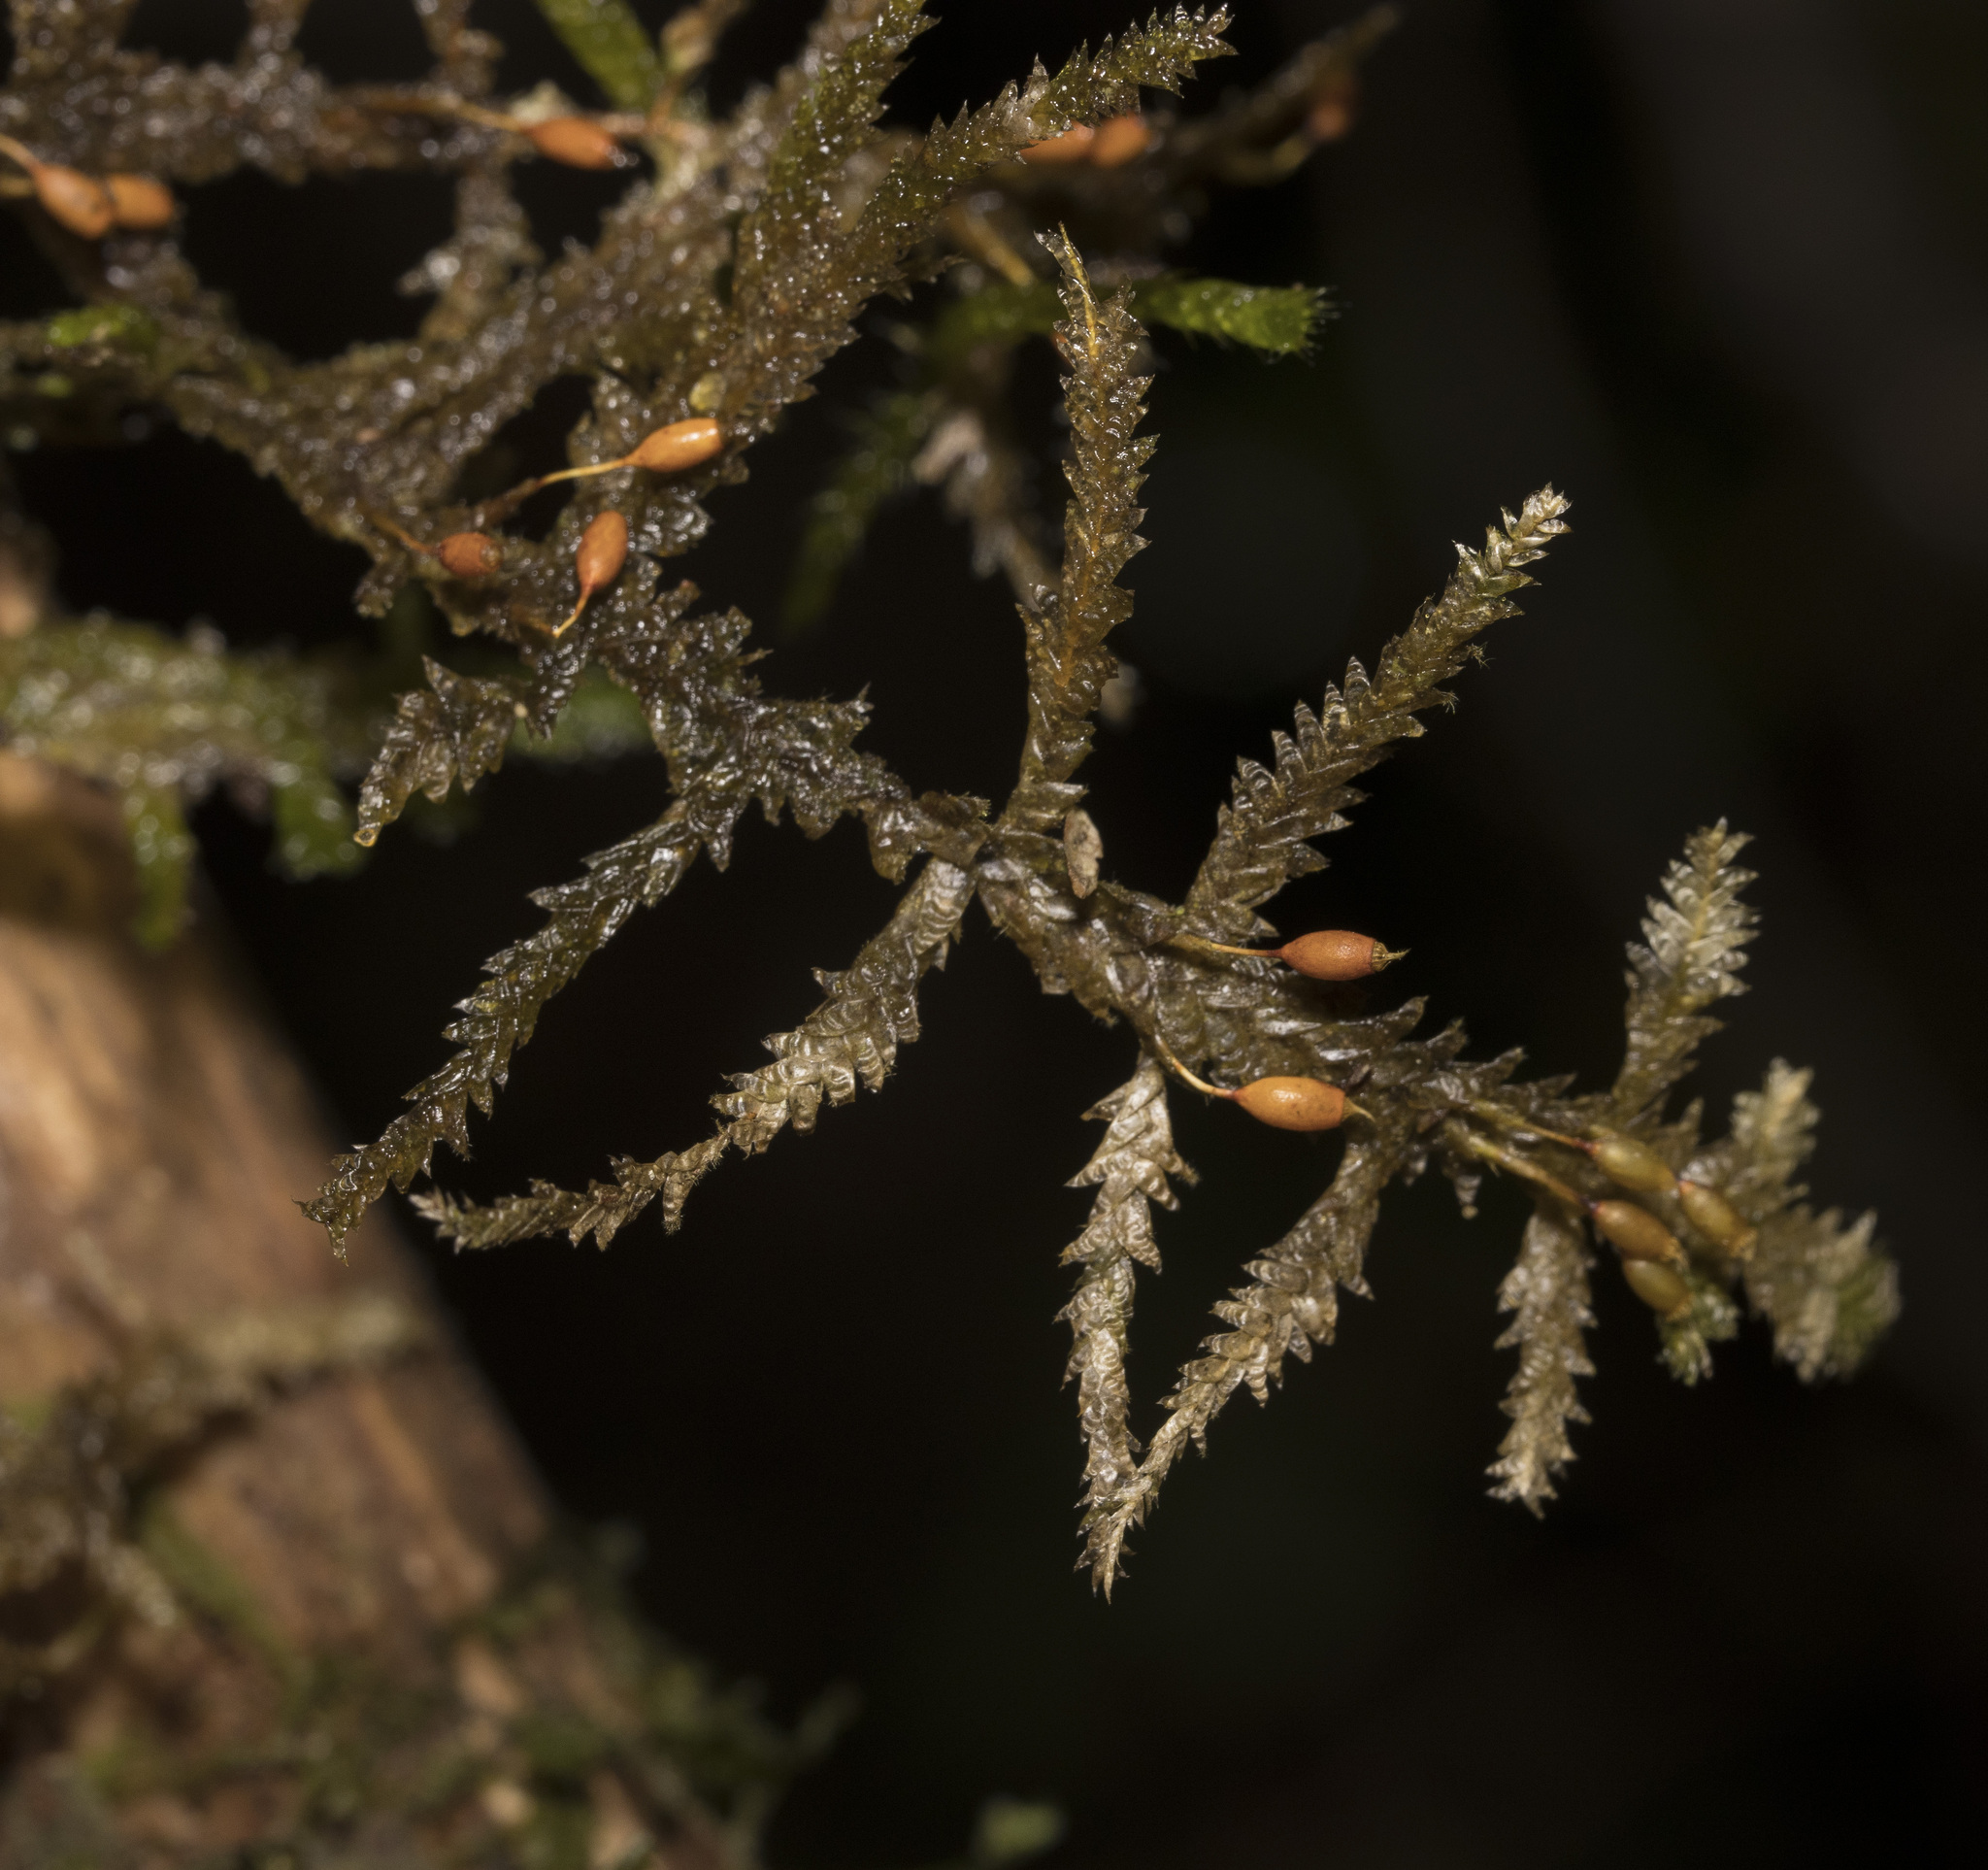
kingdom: Plantae
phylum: Bryophyta
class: Bryopsida
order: Hypnales
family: Neckeraceae
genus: Neckera
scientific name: Neckera chilensis
